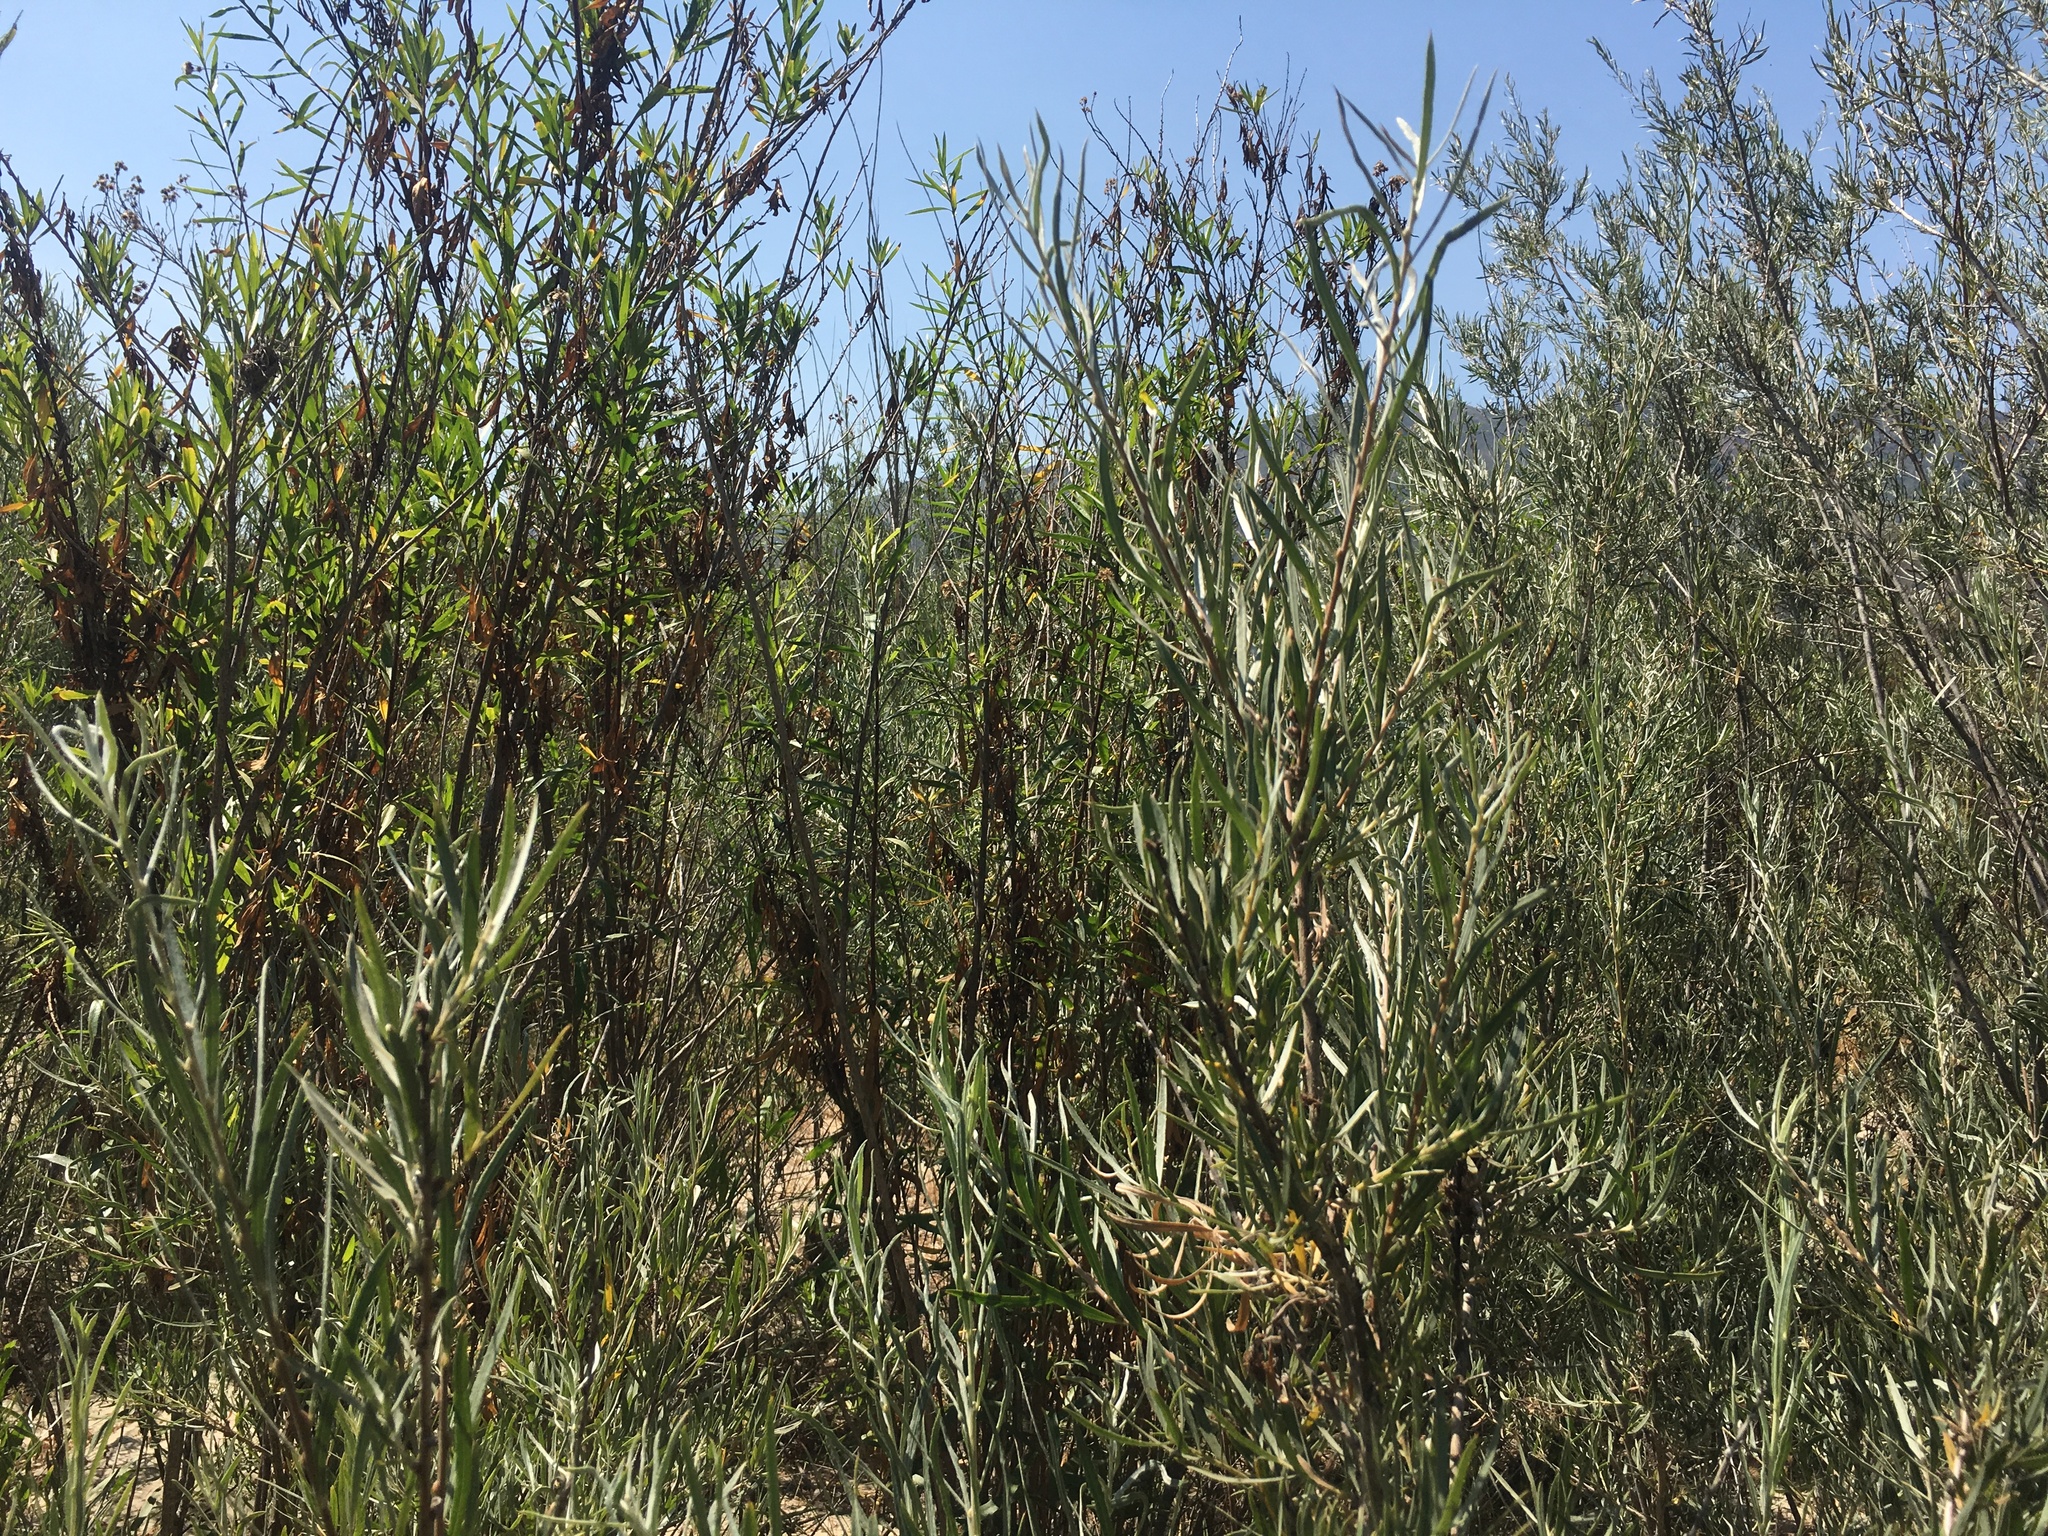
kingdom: Plantae
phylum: Tracheophyta
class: Magnoliopsida
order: Asterales
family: Asteraceae
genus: Baccharis
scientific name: Baccharis salicifolia
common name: Sticky baccharis
